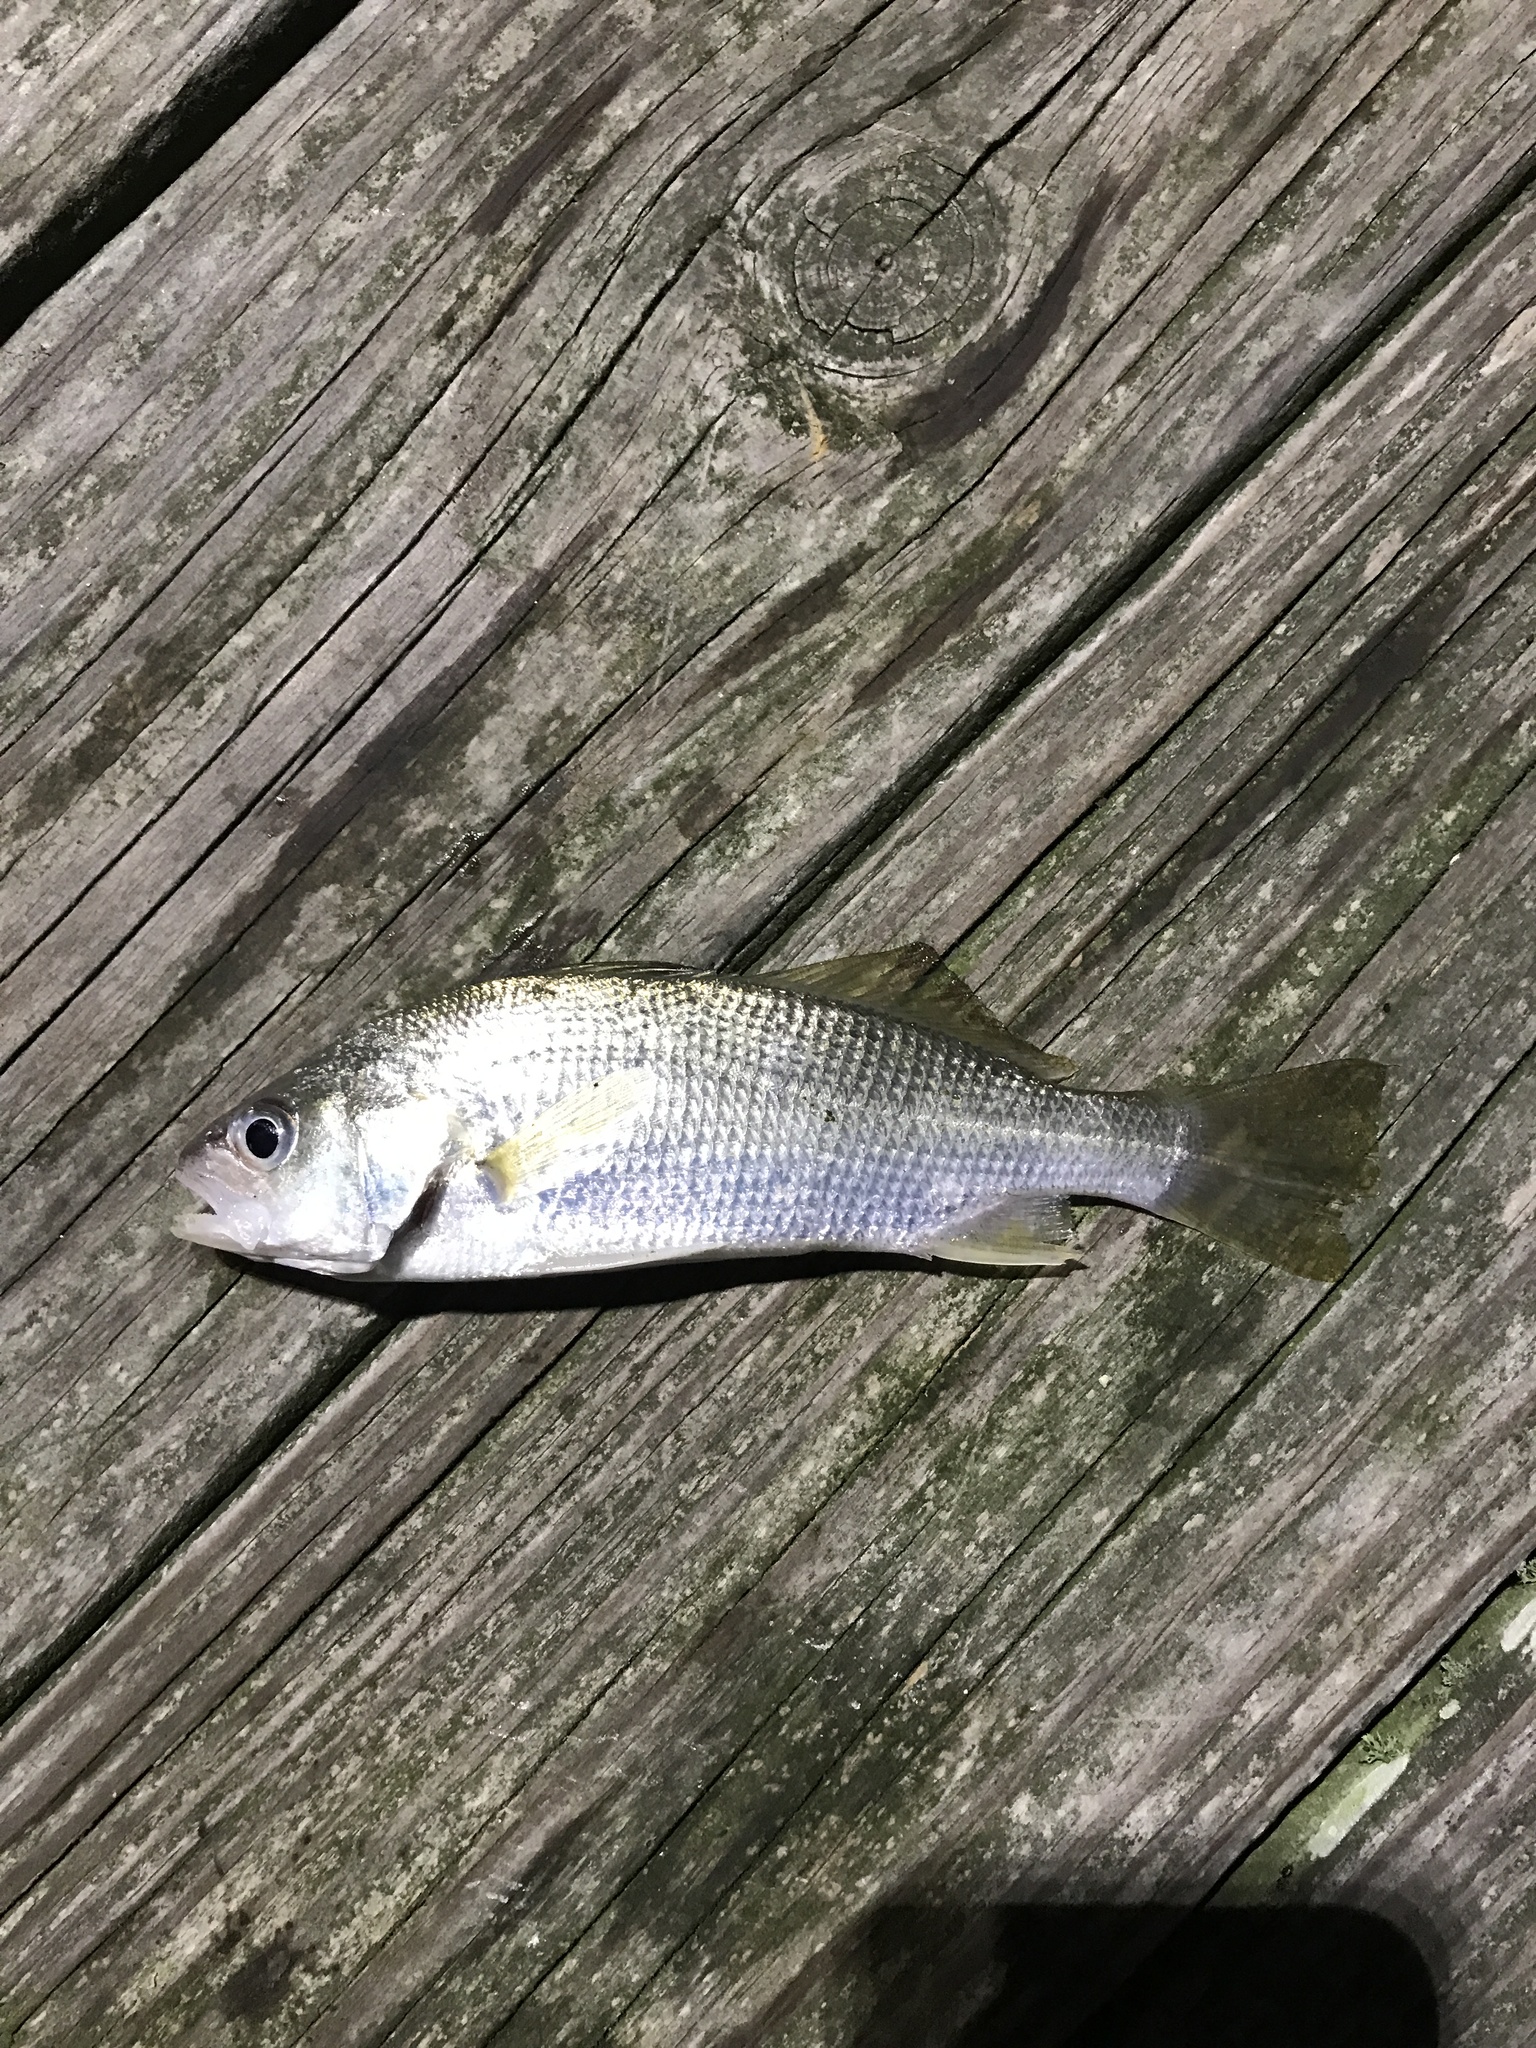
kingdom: Animalia
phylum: Chordata
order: Perciformes
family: Sciaenidae
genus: Bairdiella
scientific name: Bairdiella chrysoura
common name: Silver perch
